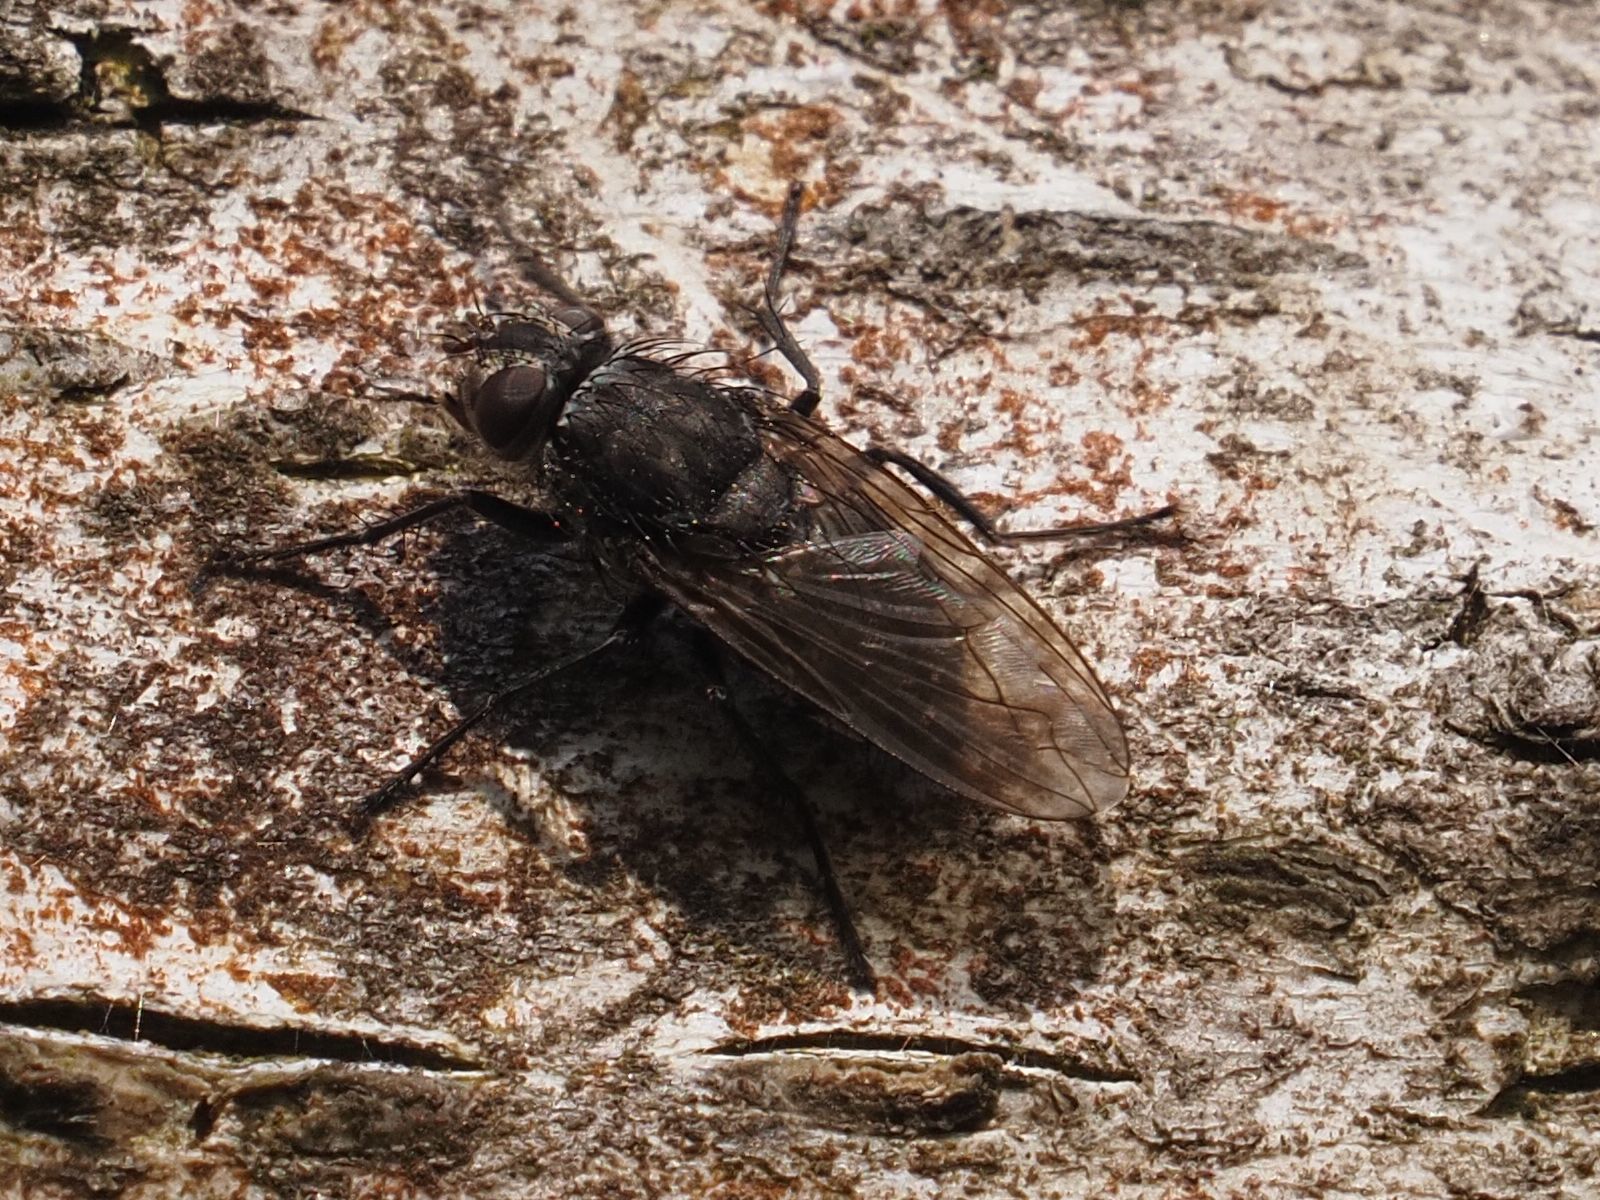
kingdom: Animalia
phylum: Arthropoda
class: Insecta
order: Diptera
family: Polleniidae
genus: Pollenia
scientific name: Pollenia vagabunda
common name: Vagabund cluster fly
